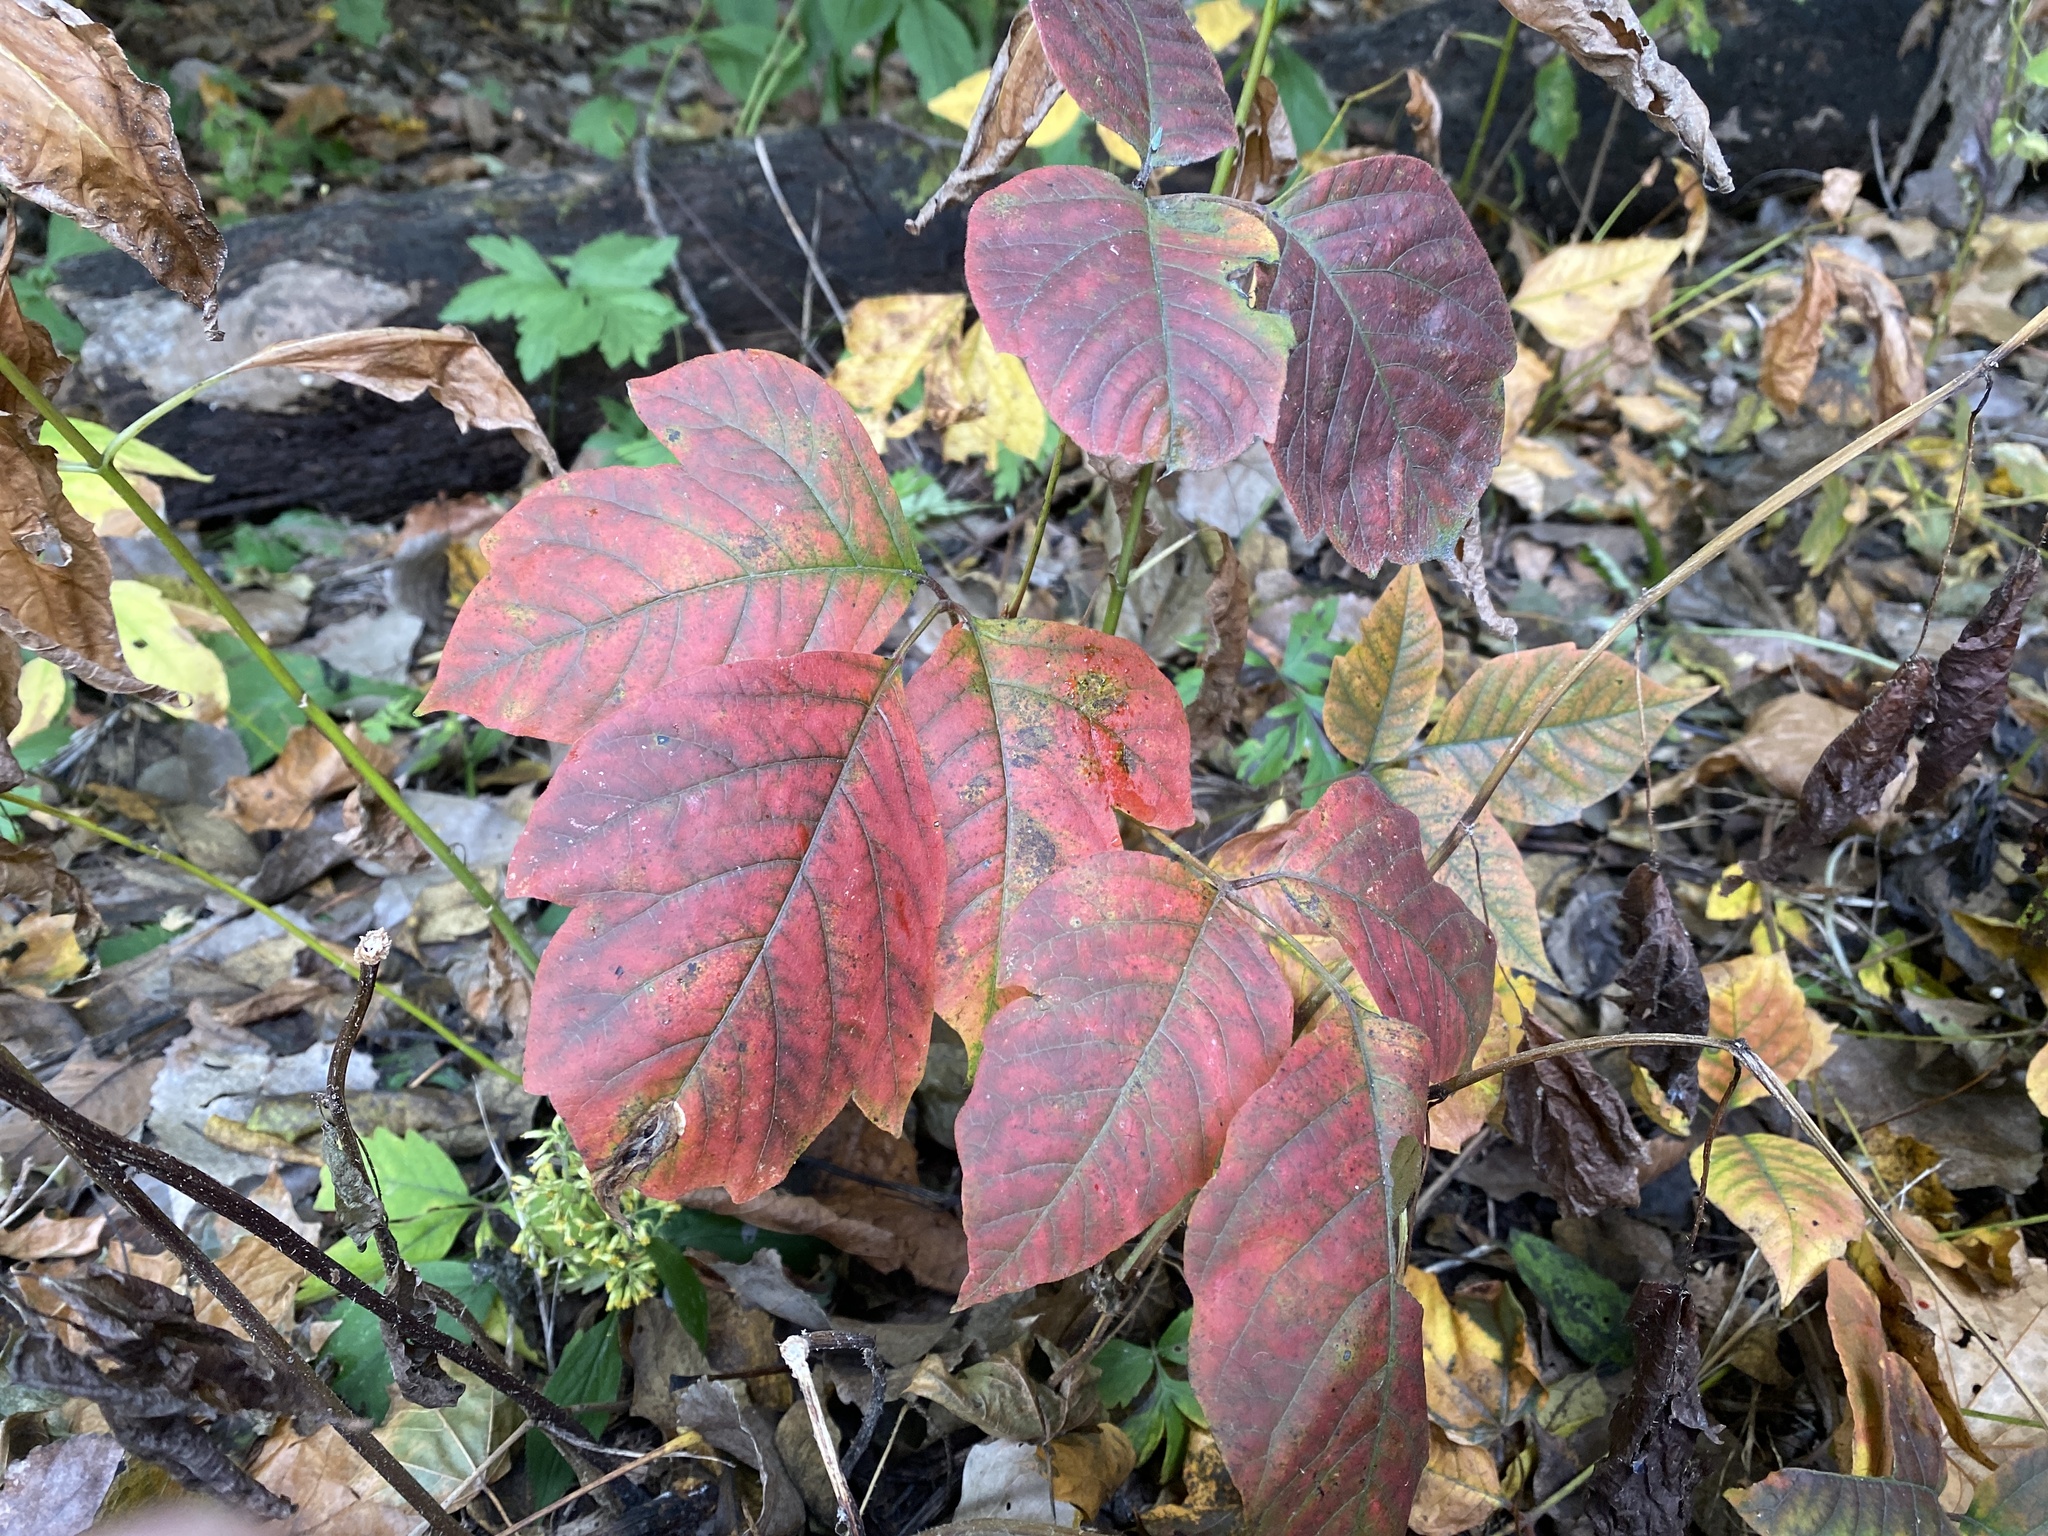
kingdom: Plantae
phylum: Tracheophyta
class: Magnoliopsida
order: Sapindales
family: Anacardiaceae
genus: Toxicodendron
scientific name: Toxicodendron radicans
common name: Poison ivy
